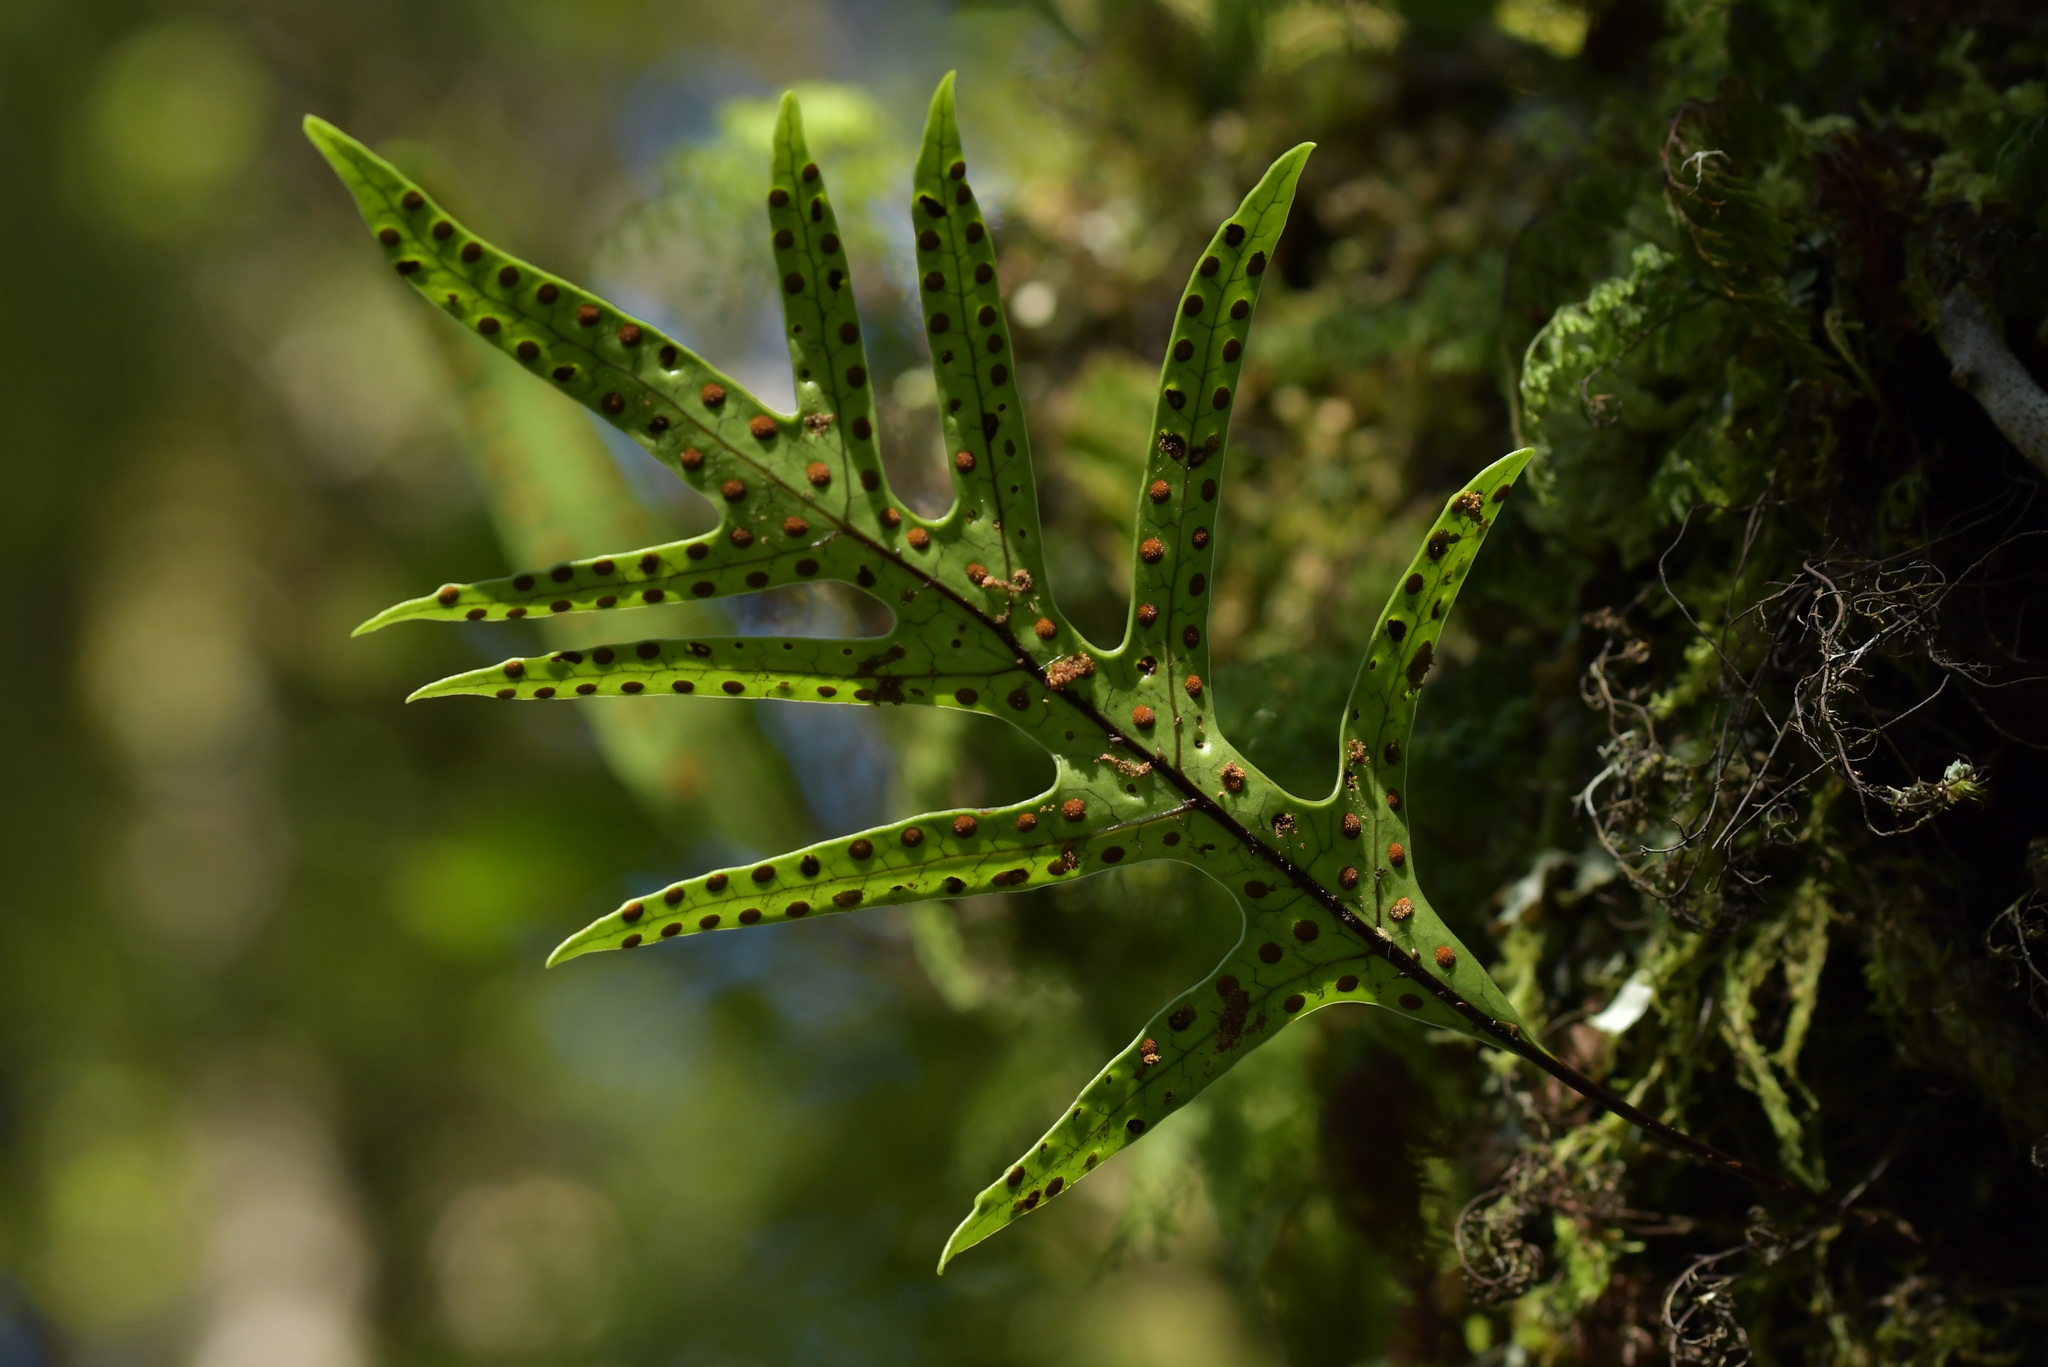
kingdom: Plantae
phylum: Tracheophyta
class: Polypodiopsida
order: Polypodiales
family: Polypodiaceae
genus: Lecanopteris
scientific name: Lecanopteris pustulata
